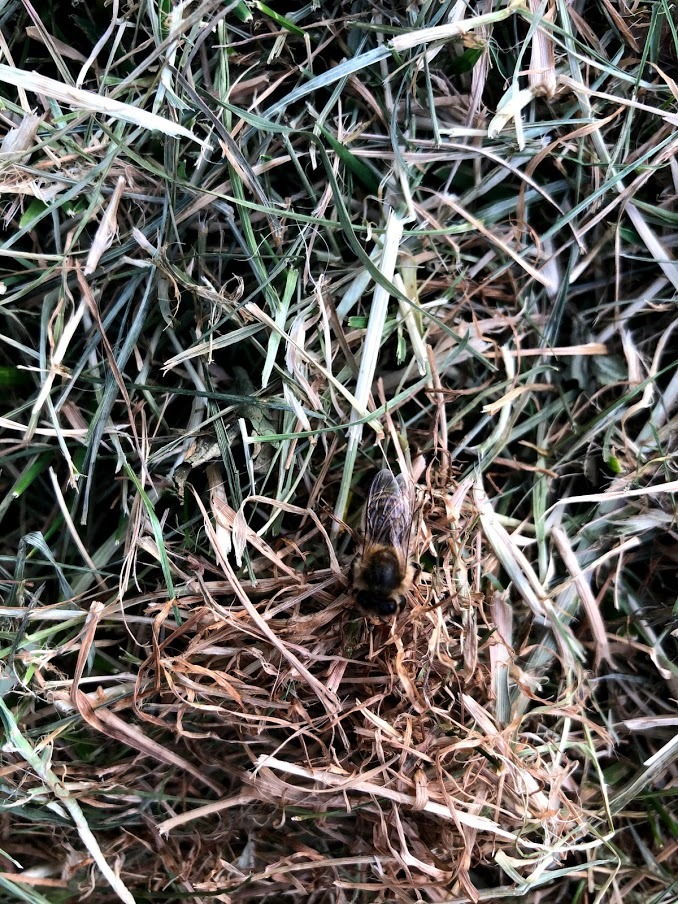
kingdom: Animalia
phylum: Arthropoda
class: Insecta
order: Hymenoptera
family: Apidae
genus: Apis
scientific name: Apis mellifera
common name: Honey bee
